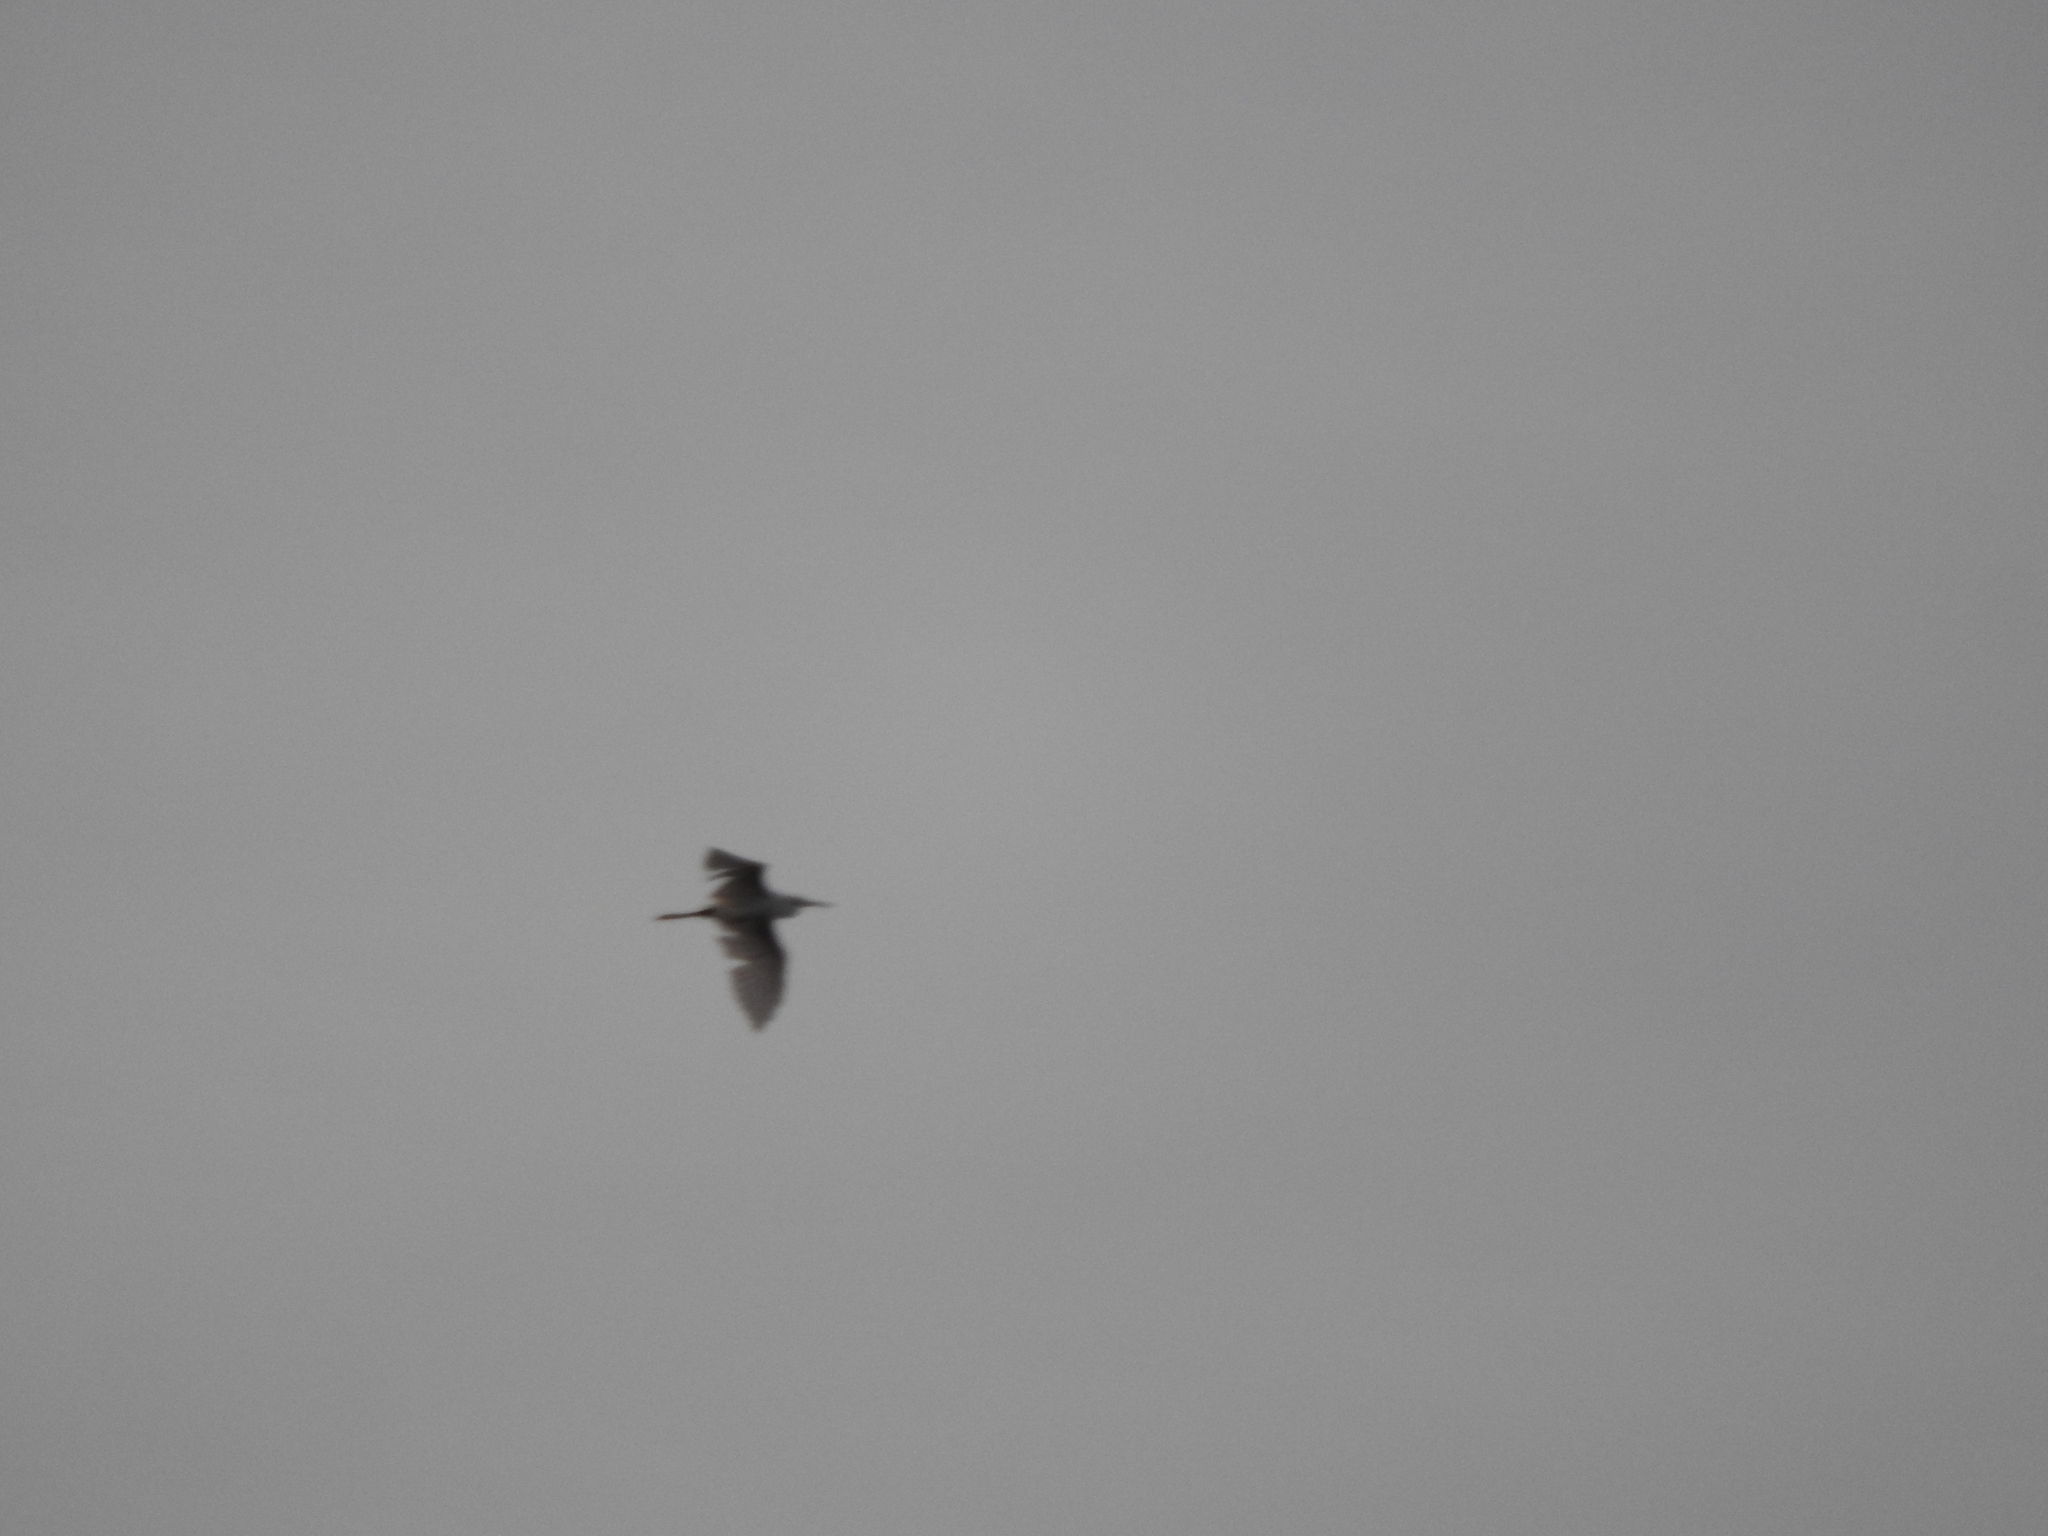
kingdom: Animalia
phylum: Chordata
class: Aves
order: Pelecaniformes
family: Ardeidae
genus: Egretta
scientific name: Egretta thula
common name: Snowy egret
